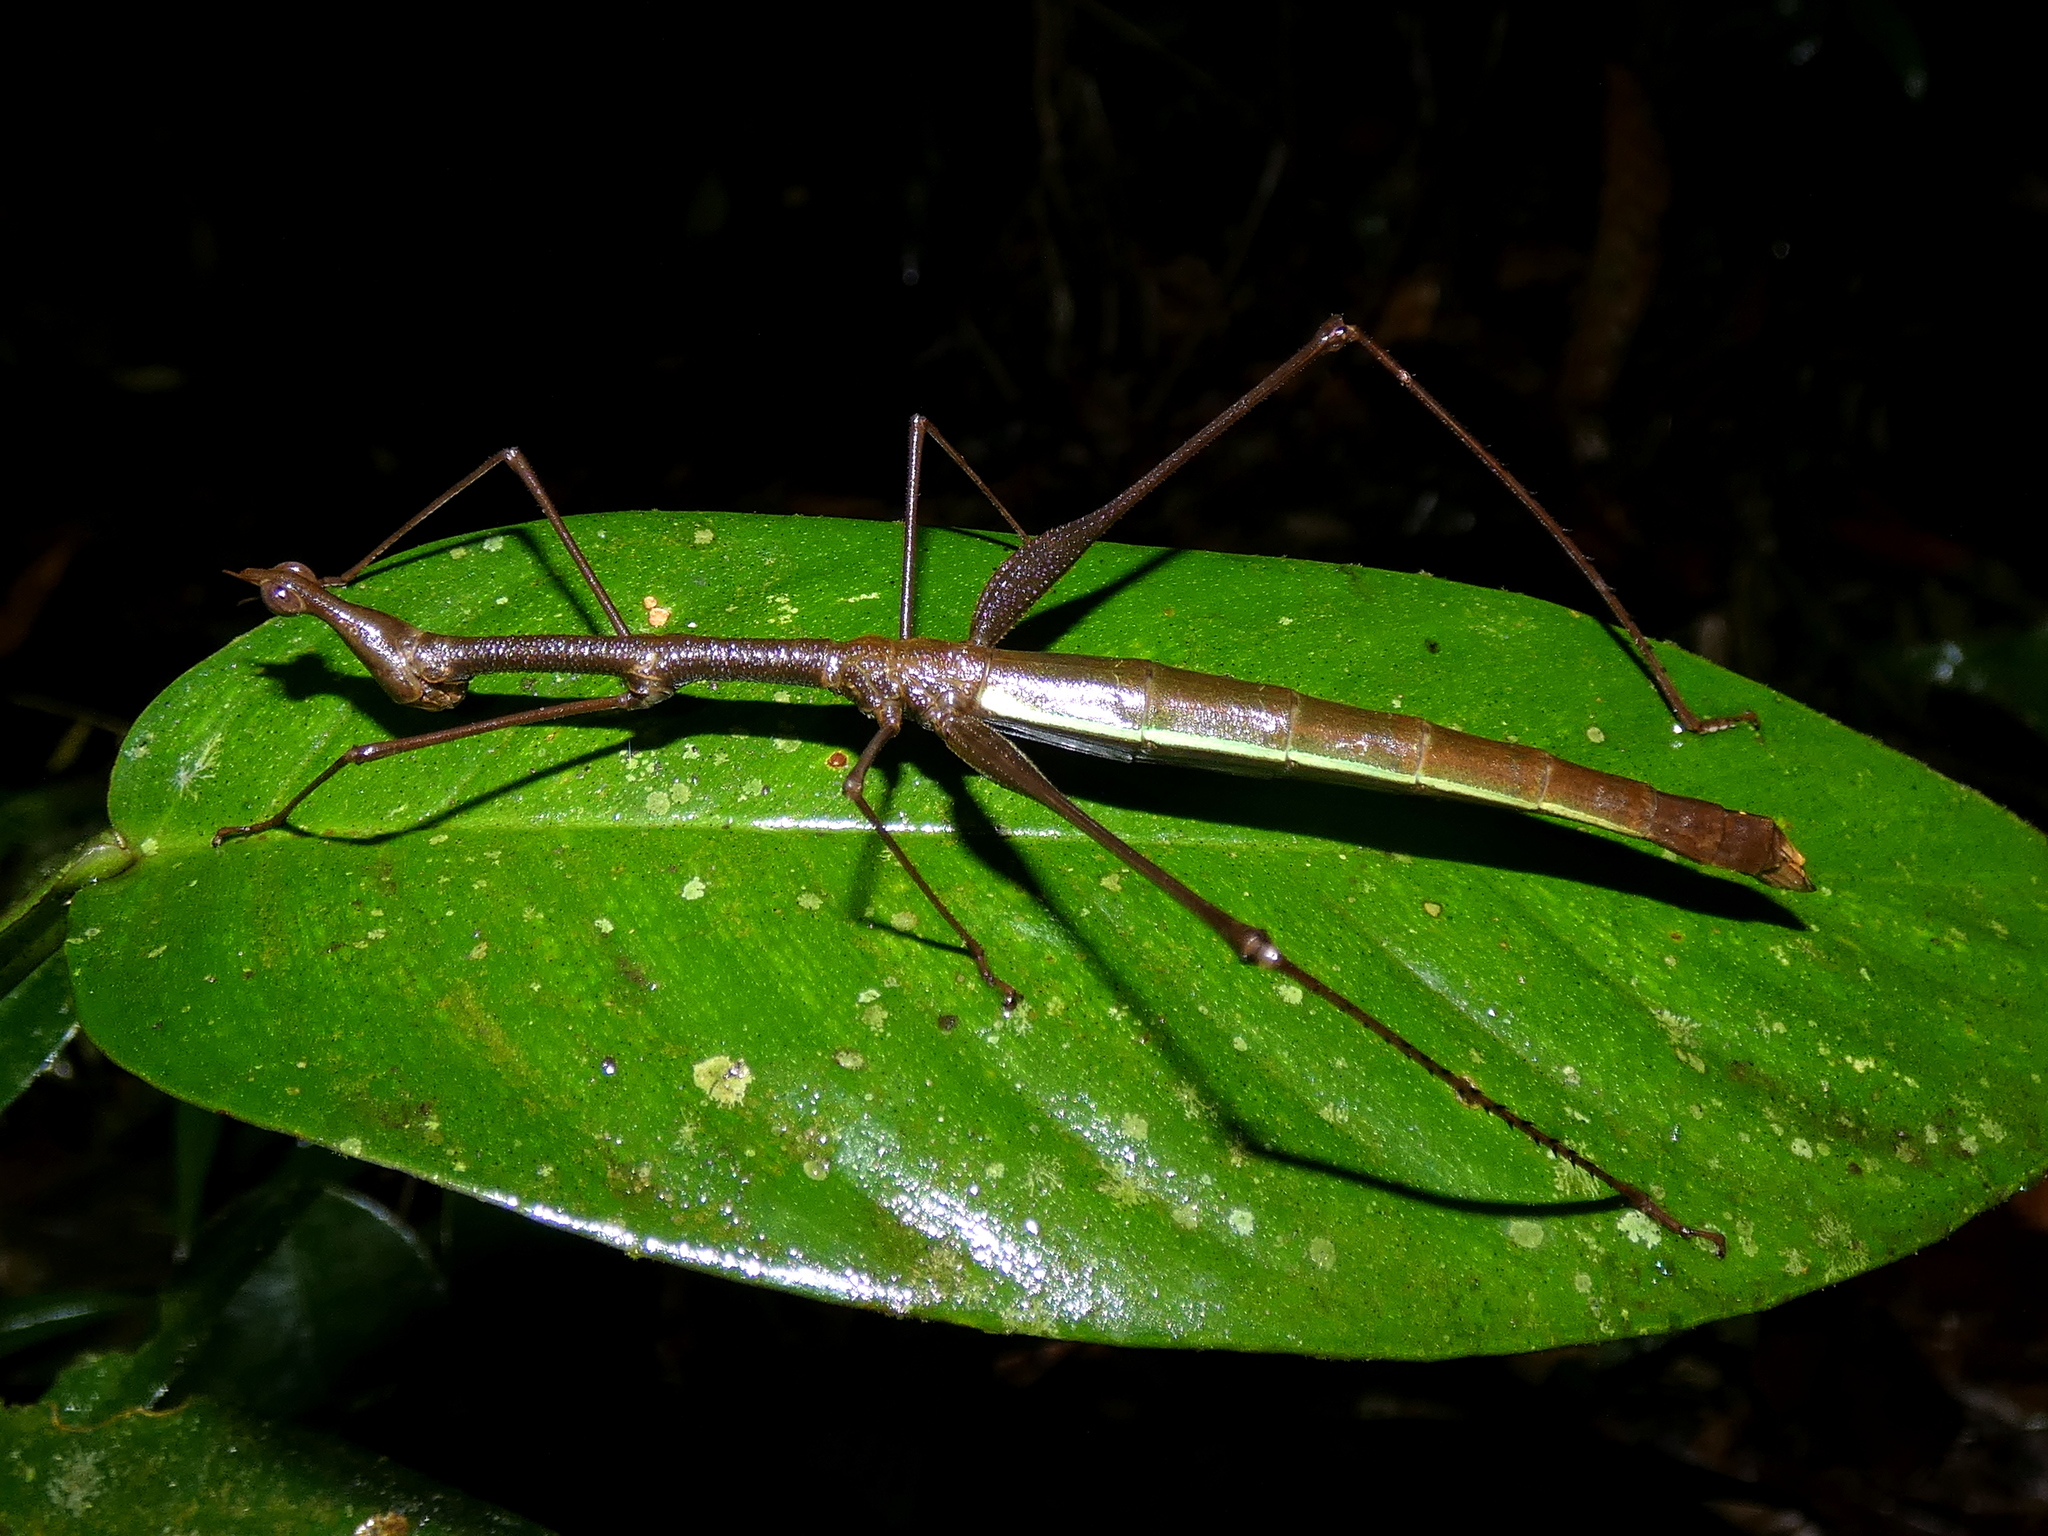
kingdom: Animalia
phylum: Arthropoda
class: Insecta
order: Orthoptera
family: Proscopiidae
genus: Apioscelis
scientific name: Apioscelis tuberculata
